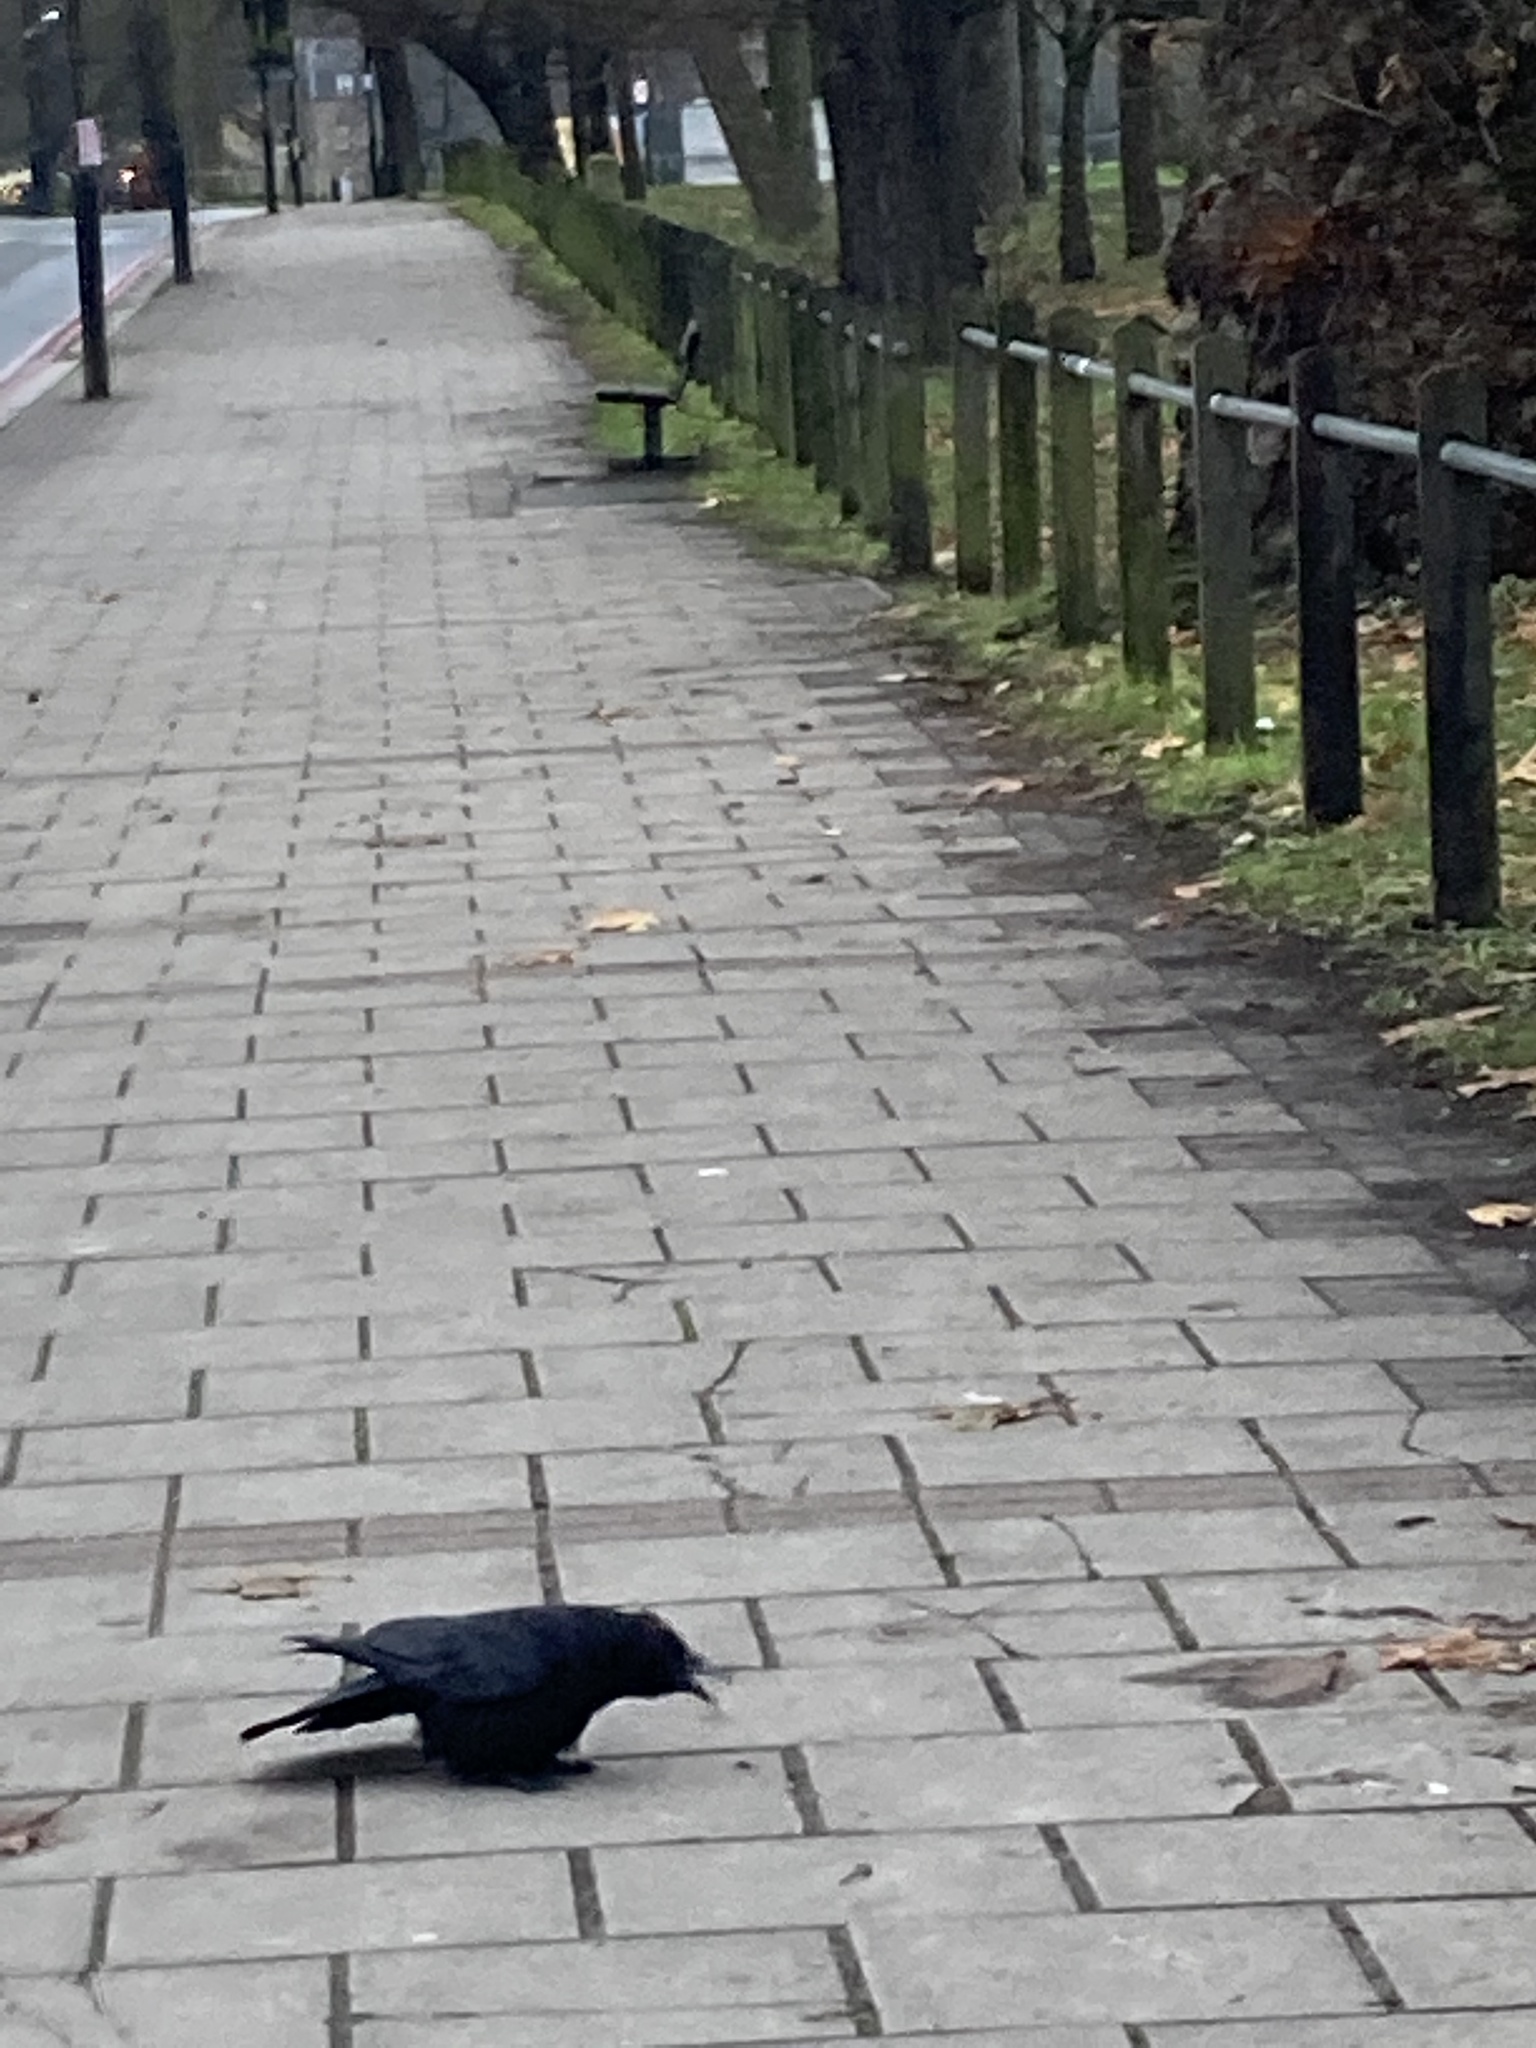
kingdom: Animalia
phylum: Chordata
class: Aves
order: Passeriformes
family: Corvidae
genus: Corvus
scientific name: Corvus corone
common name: Carrion crow
